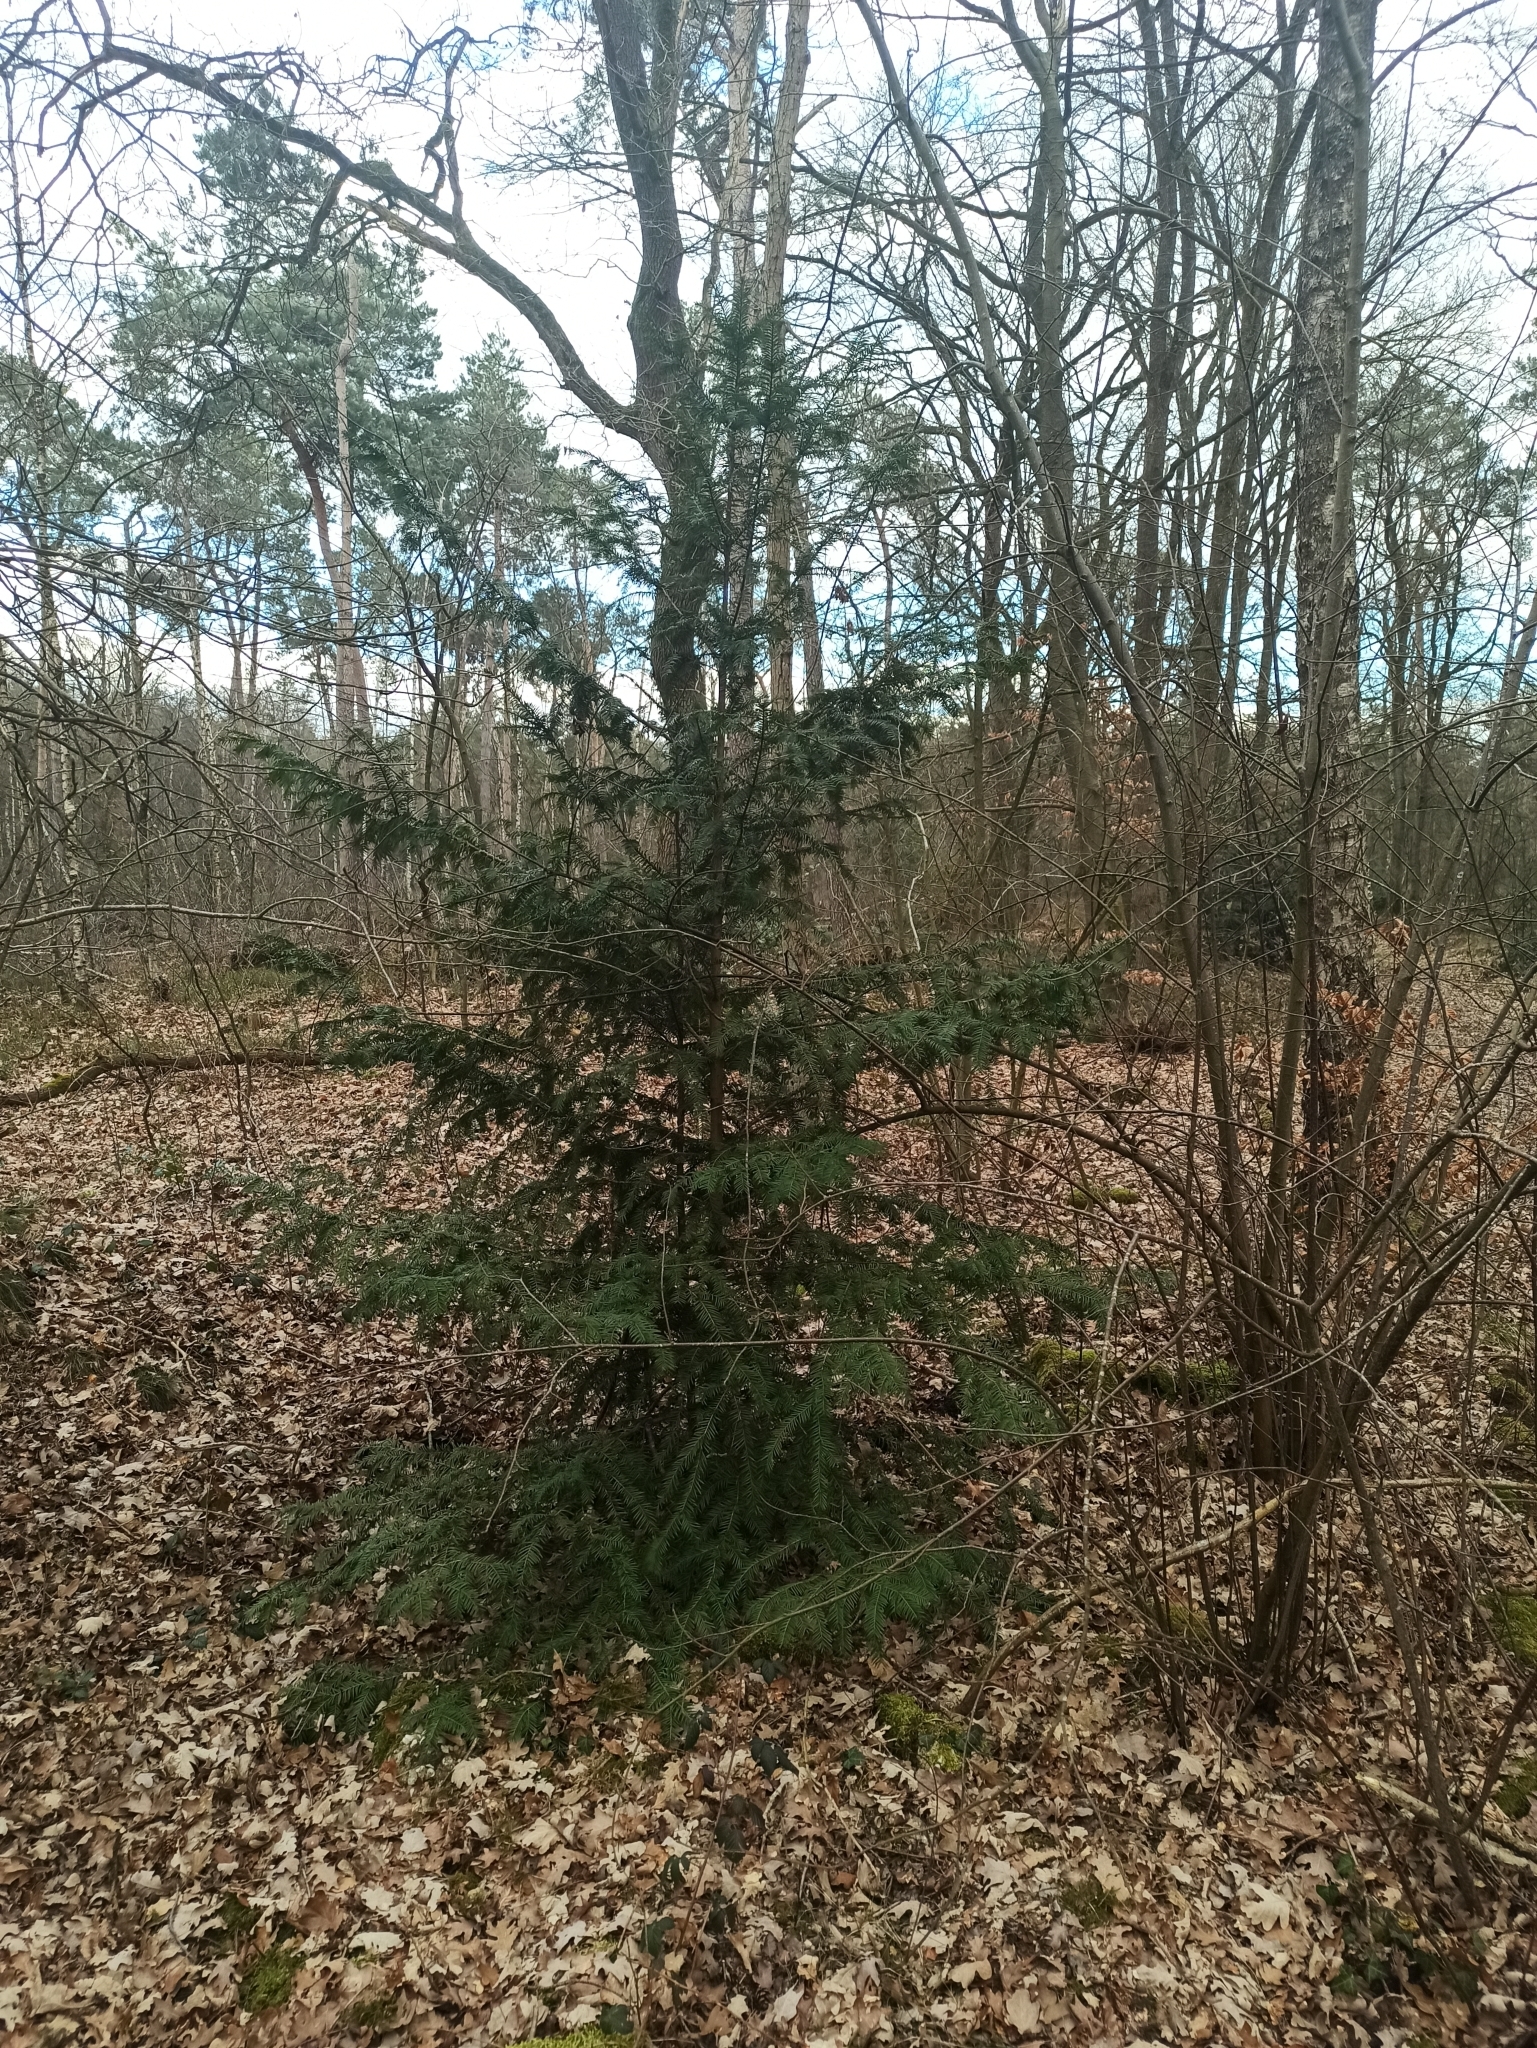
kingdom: Plantae
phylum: Tracheophyta
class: Pinopsida
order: Pinales
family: Taxaceae
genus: Taxus
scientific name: Taxus baccata
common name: Yew
